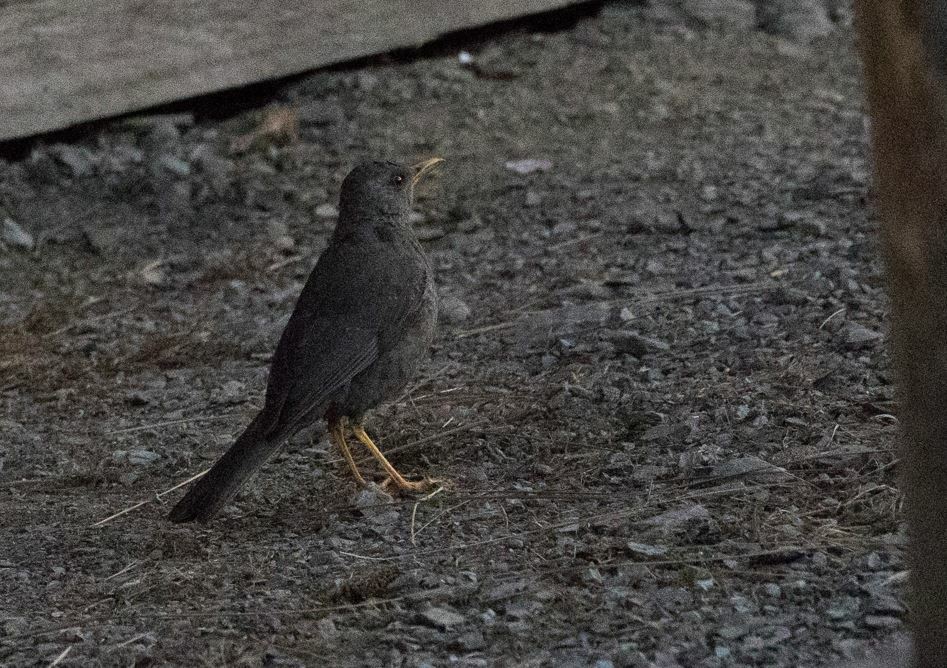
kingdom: Animalia
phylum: Chordata
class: Aves
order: Passeriformes
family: Turdidae
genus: Turdus
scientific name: Turdus chiguanco
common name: Chiguanco thrush
